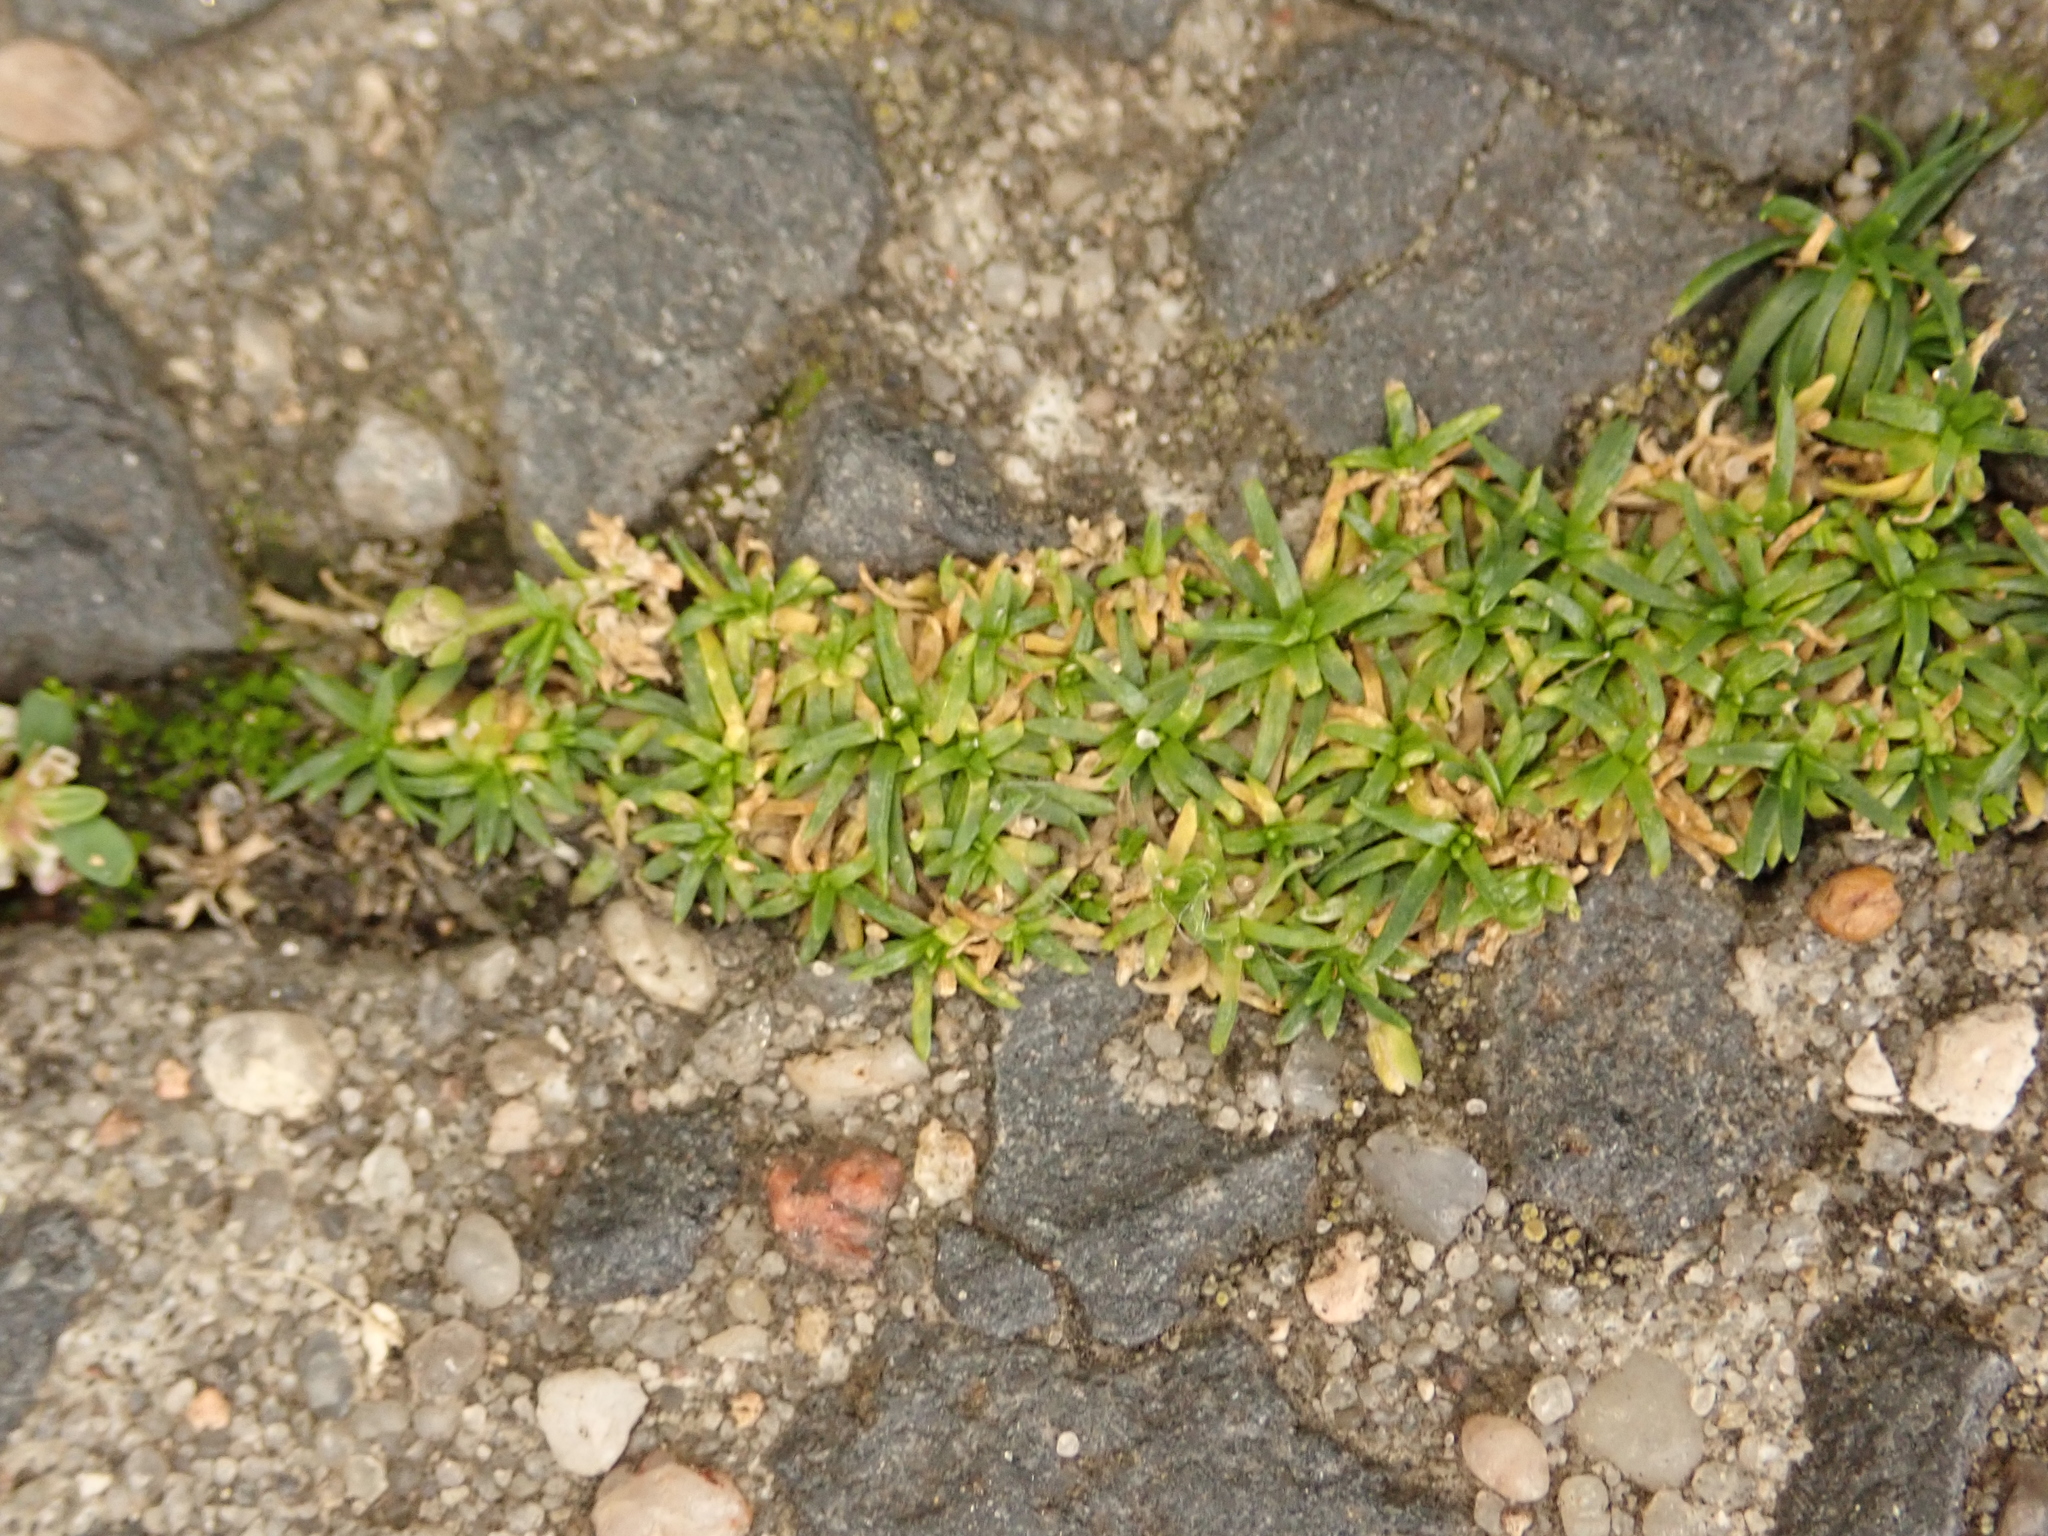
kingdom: Plantae
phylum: Tracheophyta
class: Magnoliopsida
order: Caryophyllales
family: Caryophyllaceae
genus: Sagina
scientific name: Sagina procumbens
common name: Procumbent pearlwort
